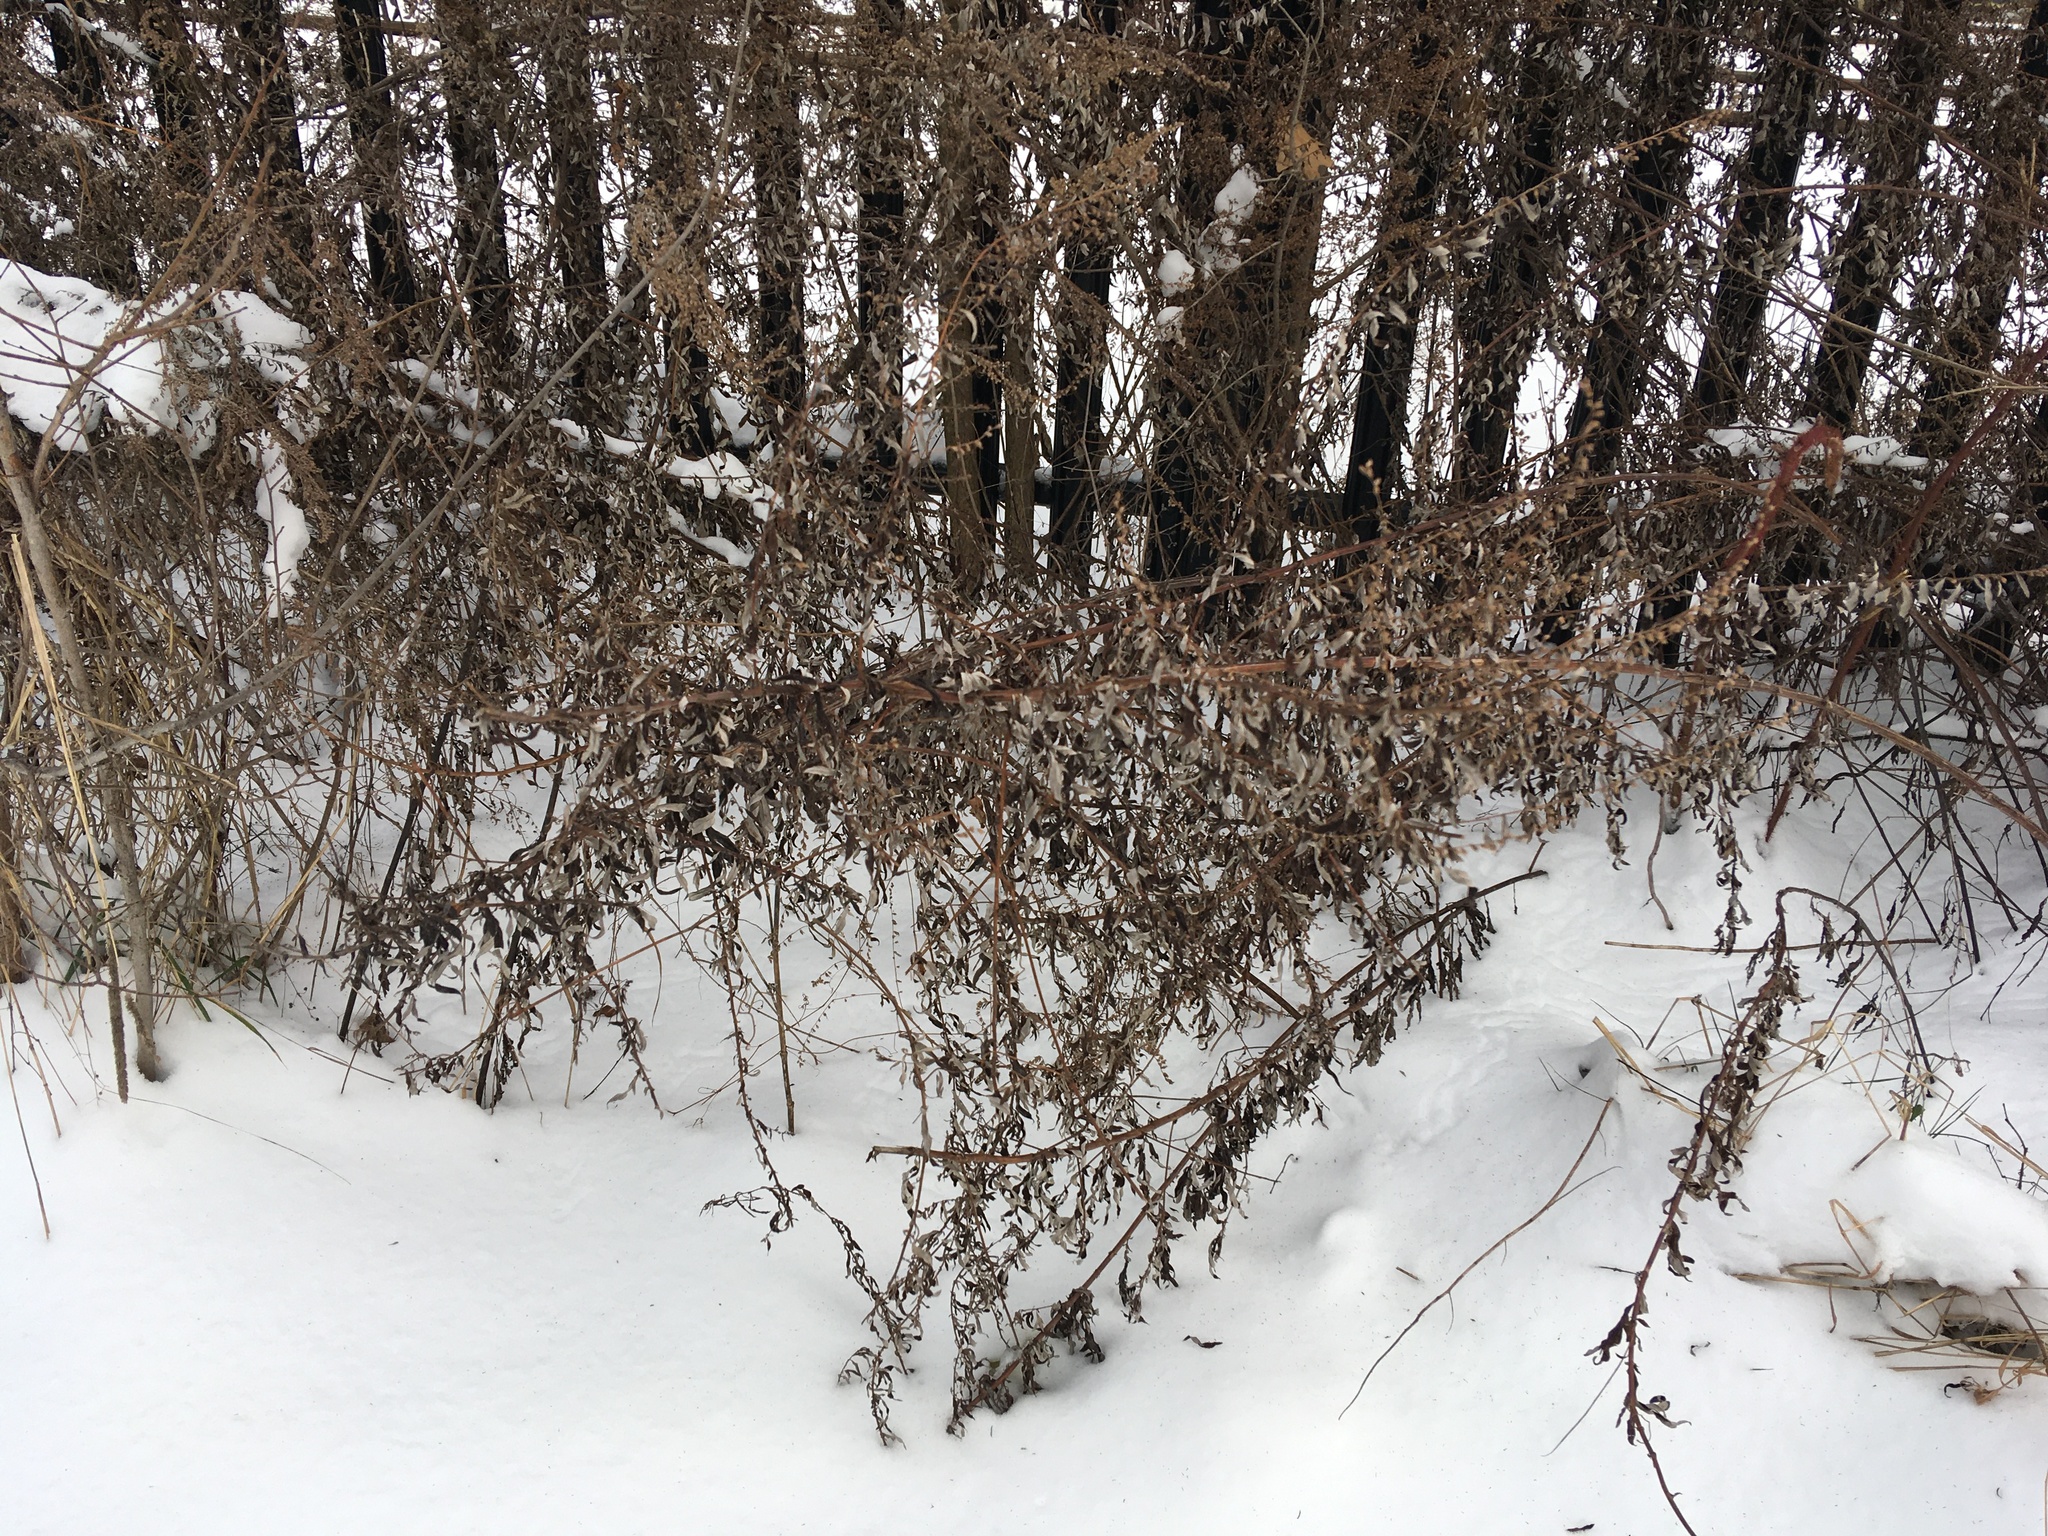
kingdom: Plantae
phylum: Tracheophyta
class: Magnoliopsida
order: Asterales
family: Asteraceae
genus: Artemisia
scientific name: Artemisia vulgaris
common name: Mugwort
